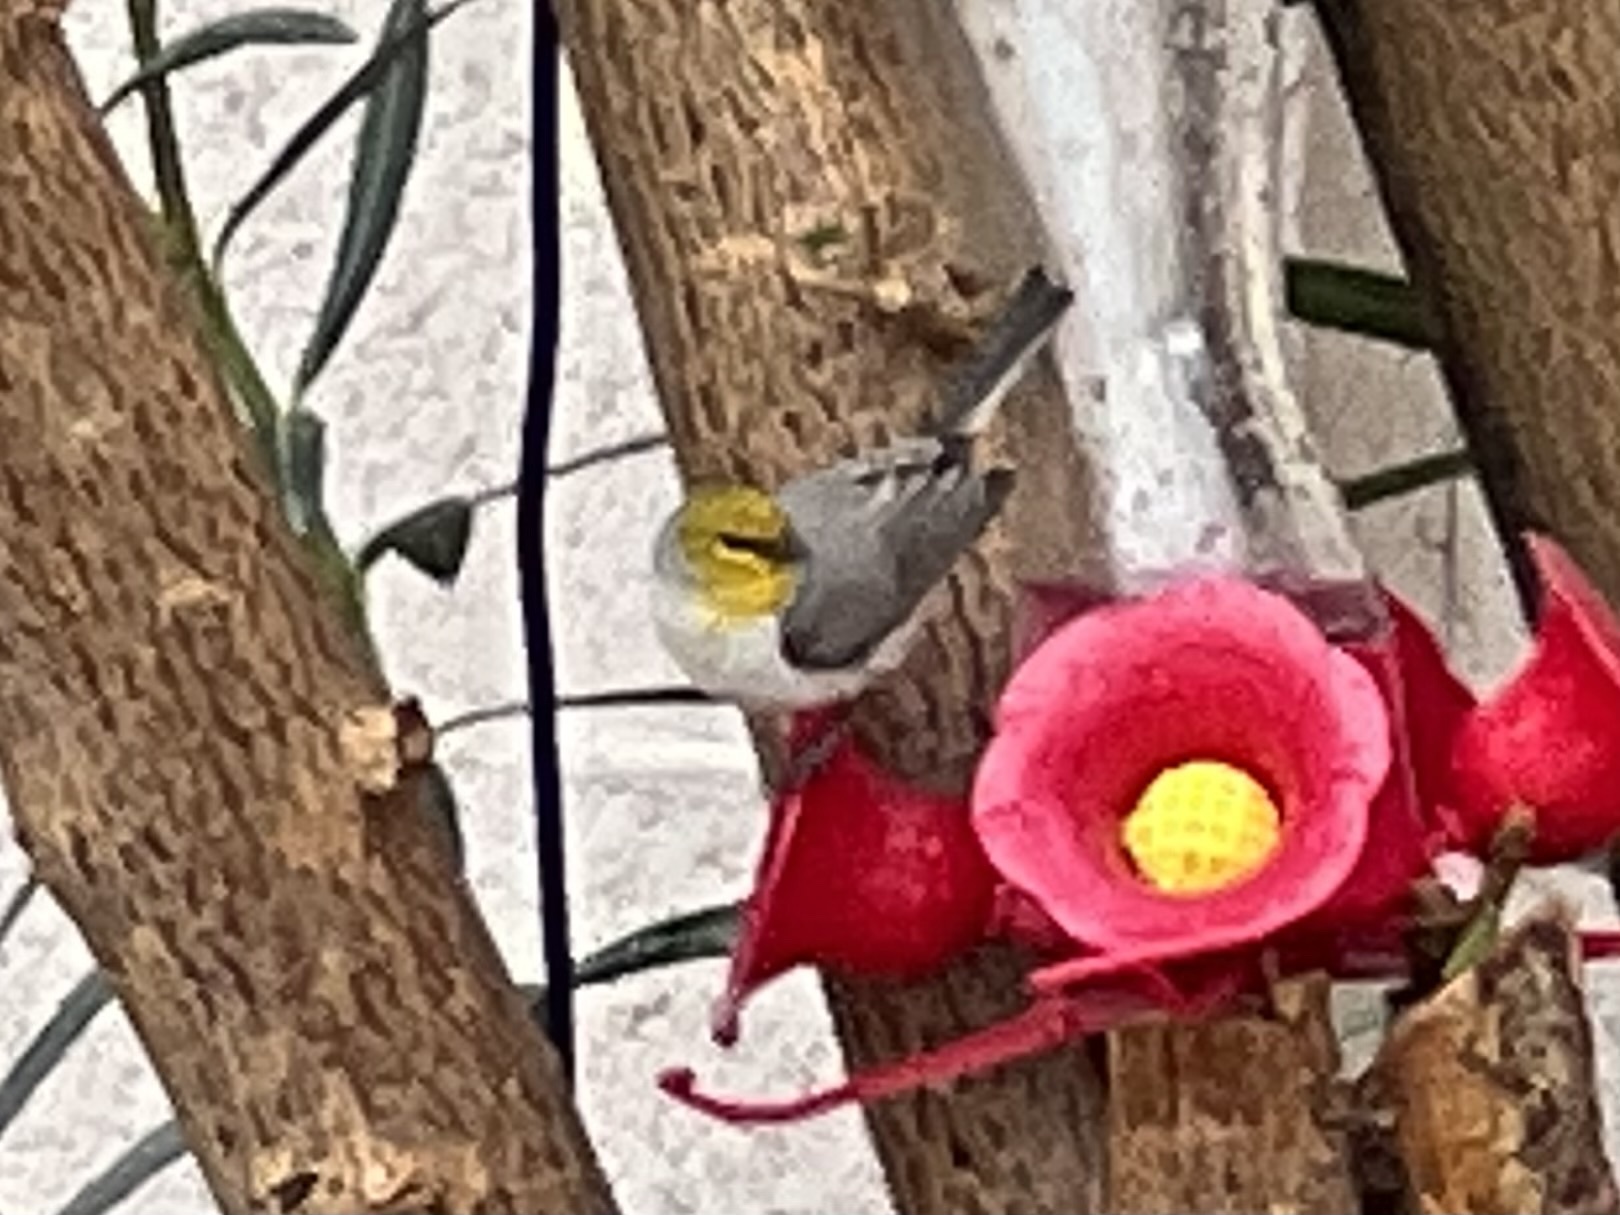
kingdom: Animalia
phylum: Chordata
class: Aves
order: Passeriformes
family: Remizidae
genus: Auriparus
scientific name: Auriparus flaviceps
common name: Verdin
